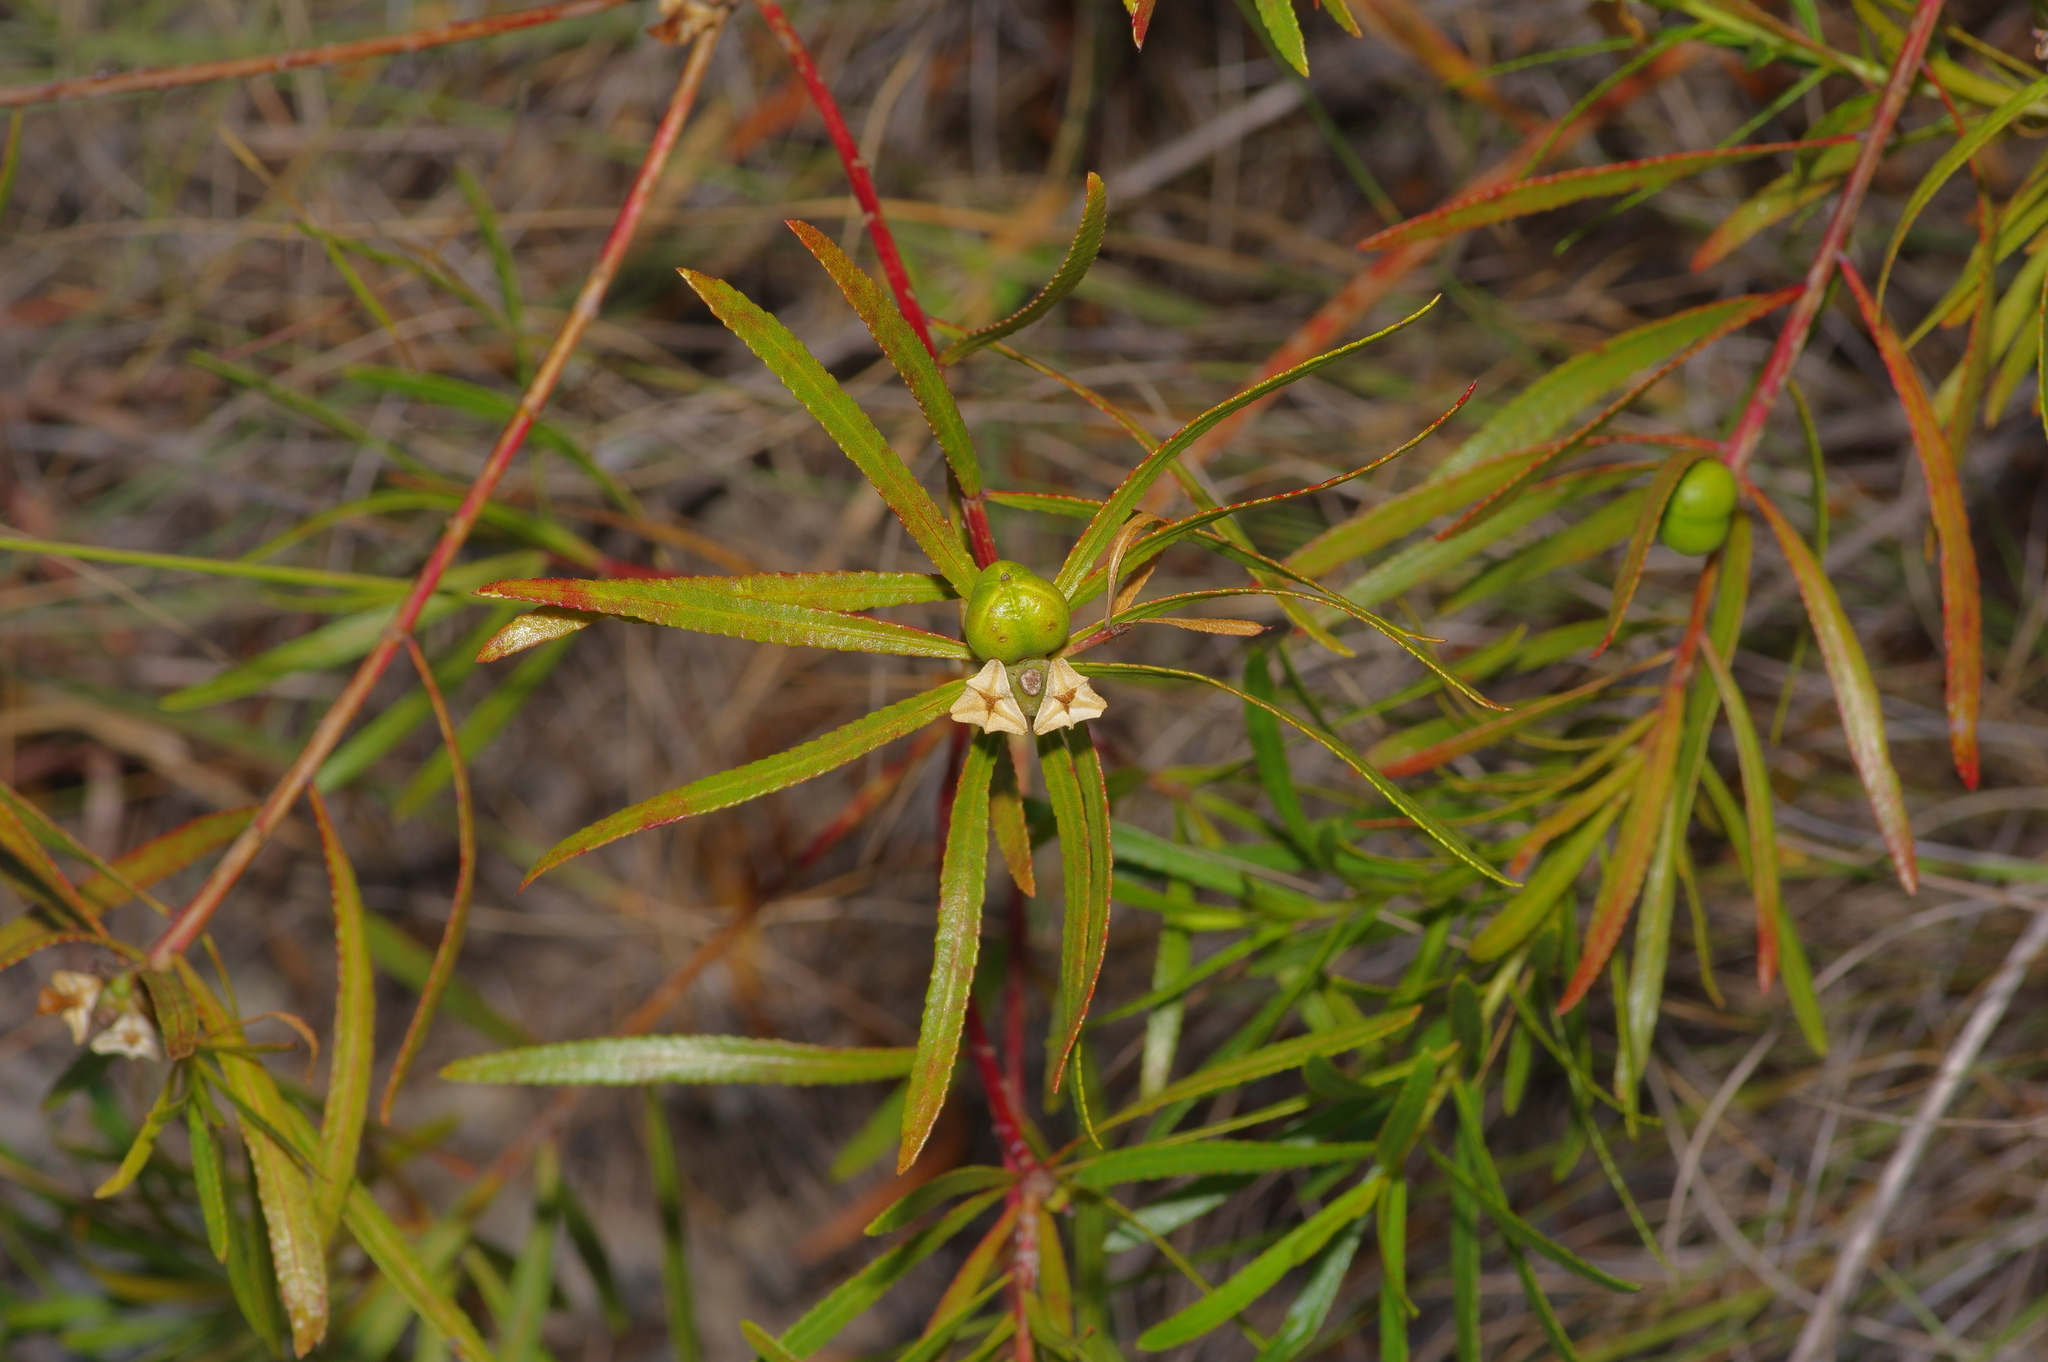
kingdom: Plantae
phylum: Tracheophyta
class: Magnoliopsida
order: Malpighiales
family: Euphorbiaceae
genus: Stillingia
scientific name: Stillingia texana
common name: Texas stillingia
